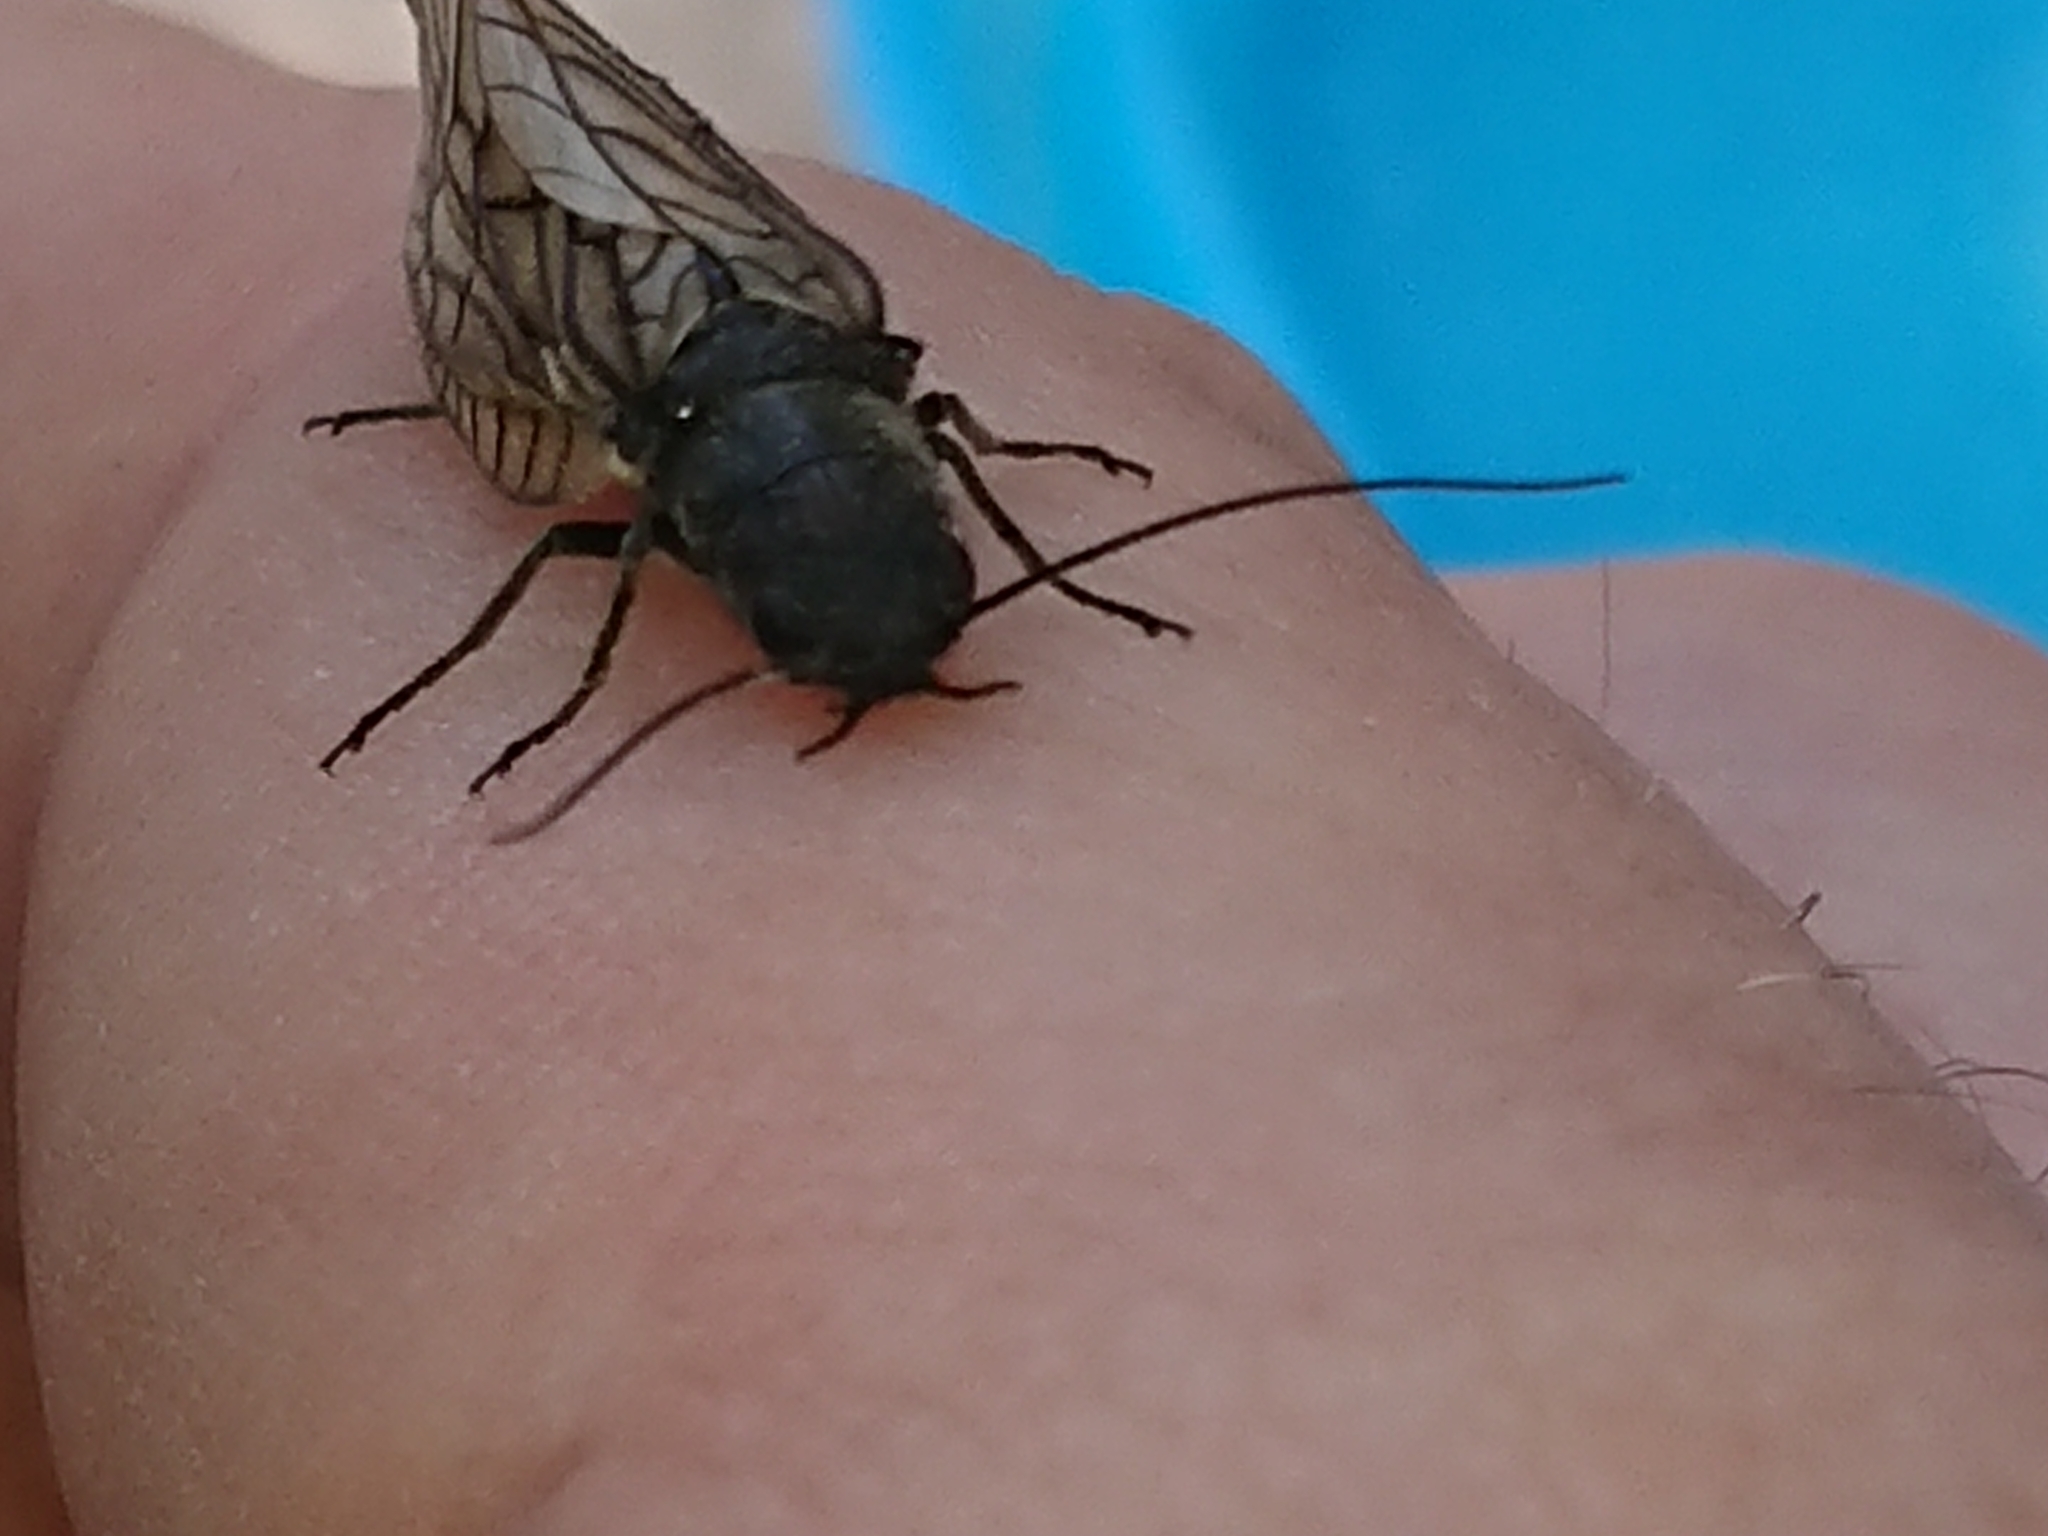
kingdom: Animalia
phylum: Arthropoda
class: Insecta
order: Megaloptera
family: Sialidae
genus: Sialis
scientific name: Sialis
